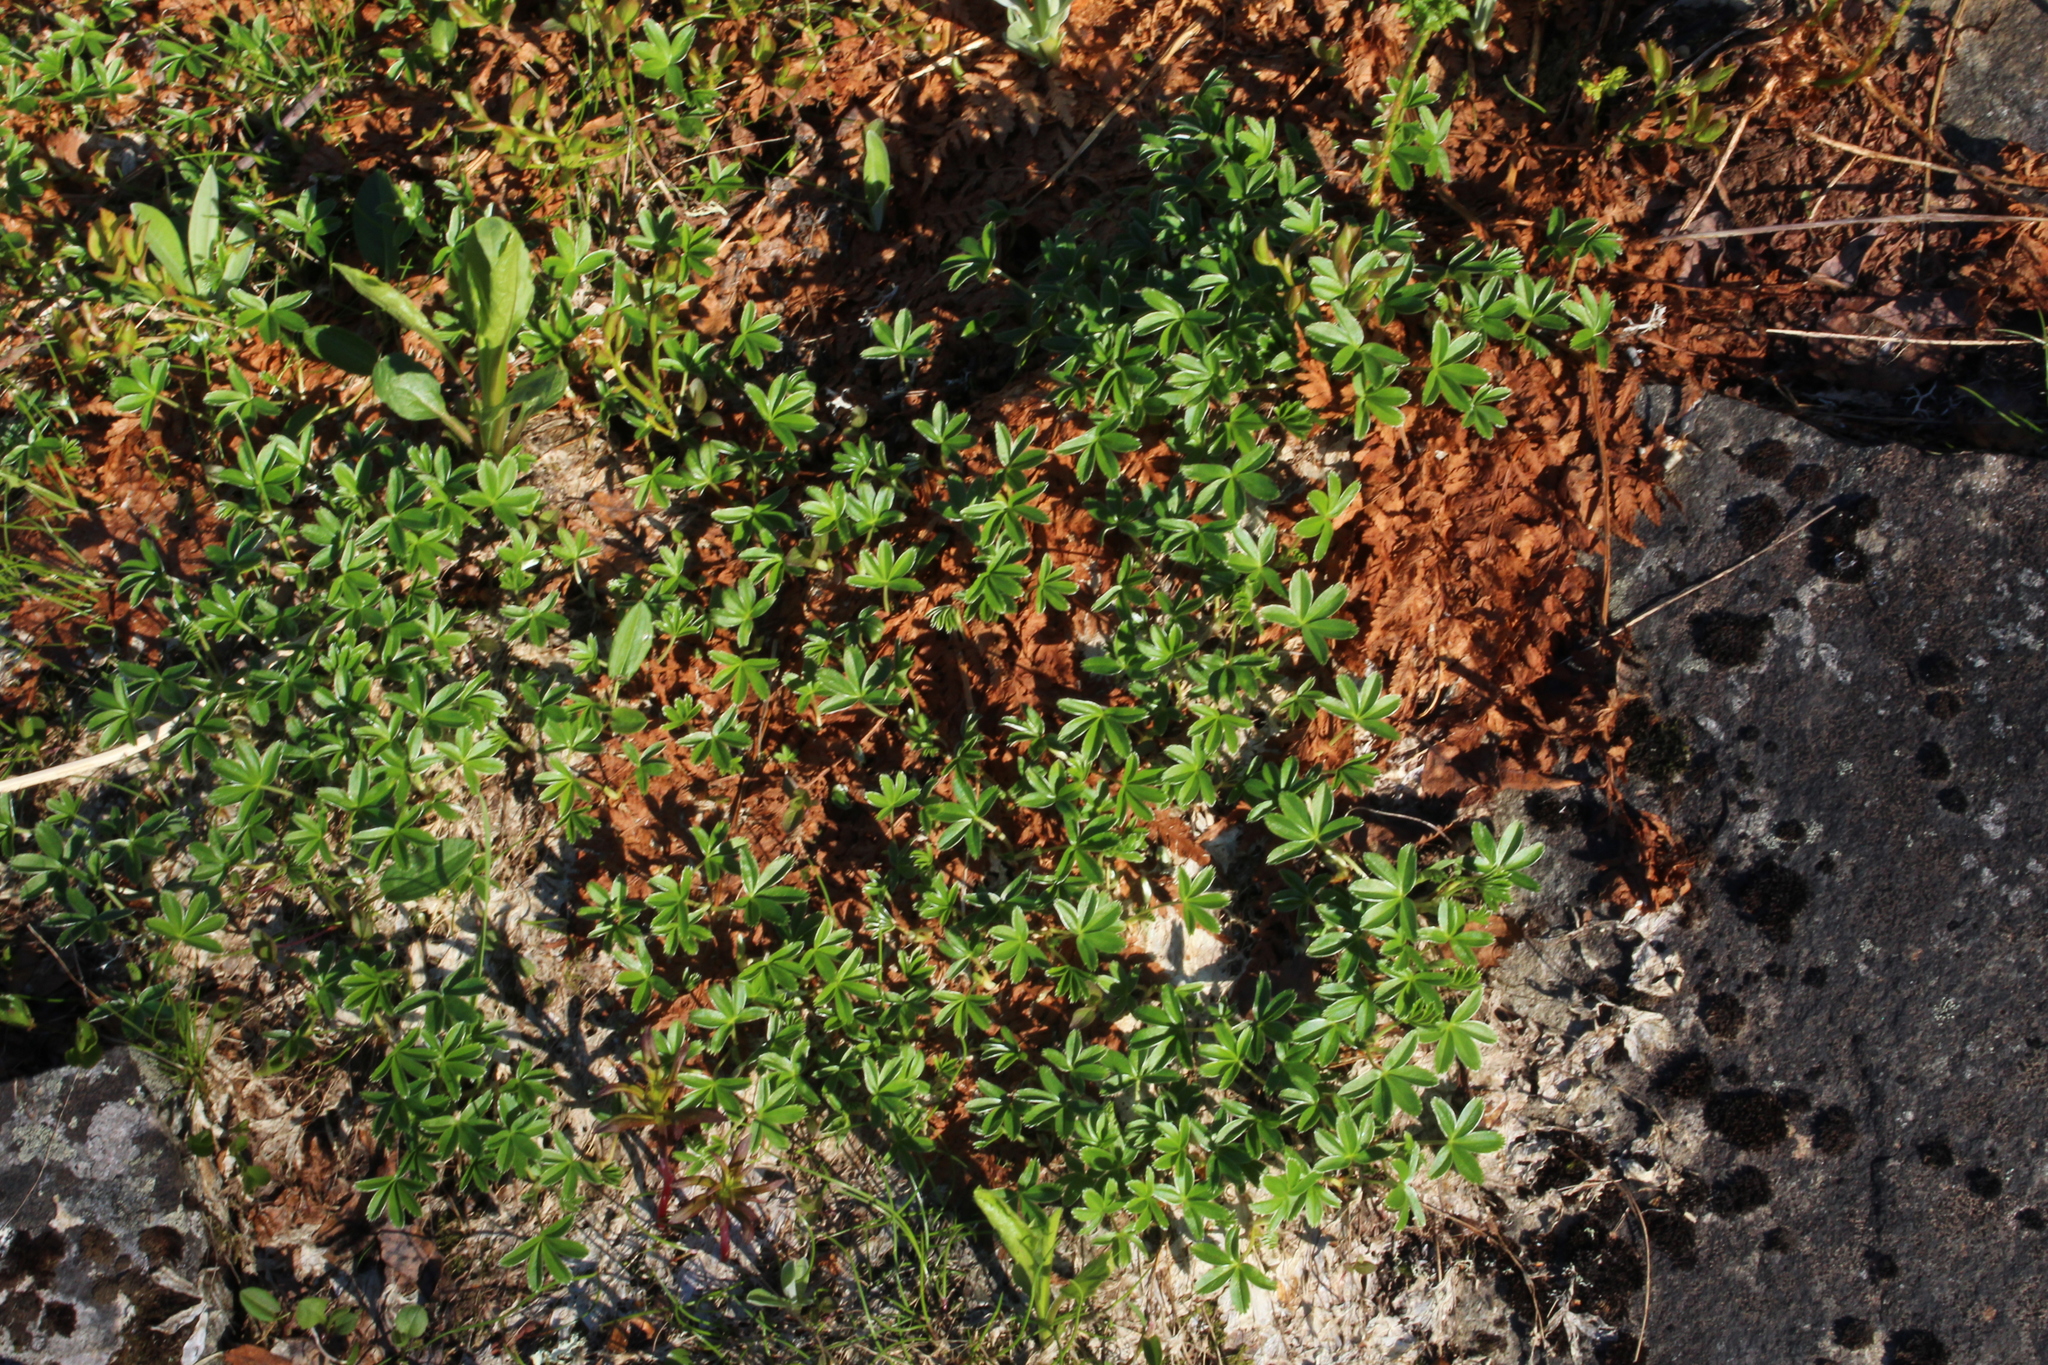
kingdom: Plantae
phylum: Tracheophyta
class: Magnoliopsida
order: Rosales
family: Rosaceae
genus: Alchemilla
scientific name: Alchemilla alpina
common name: Alpine lady's-mantle
